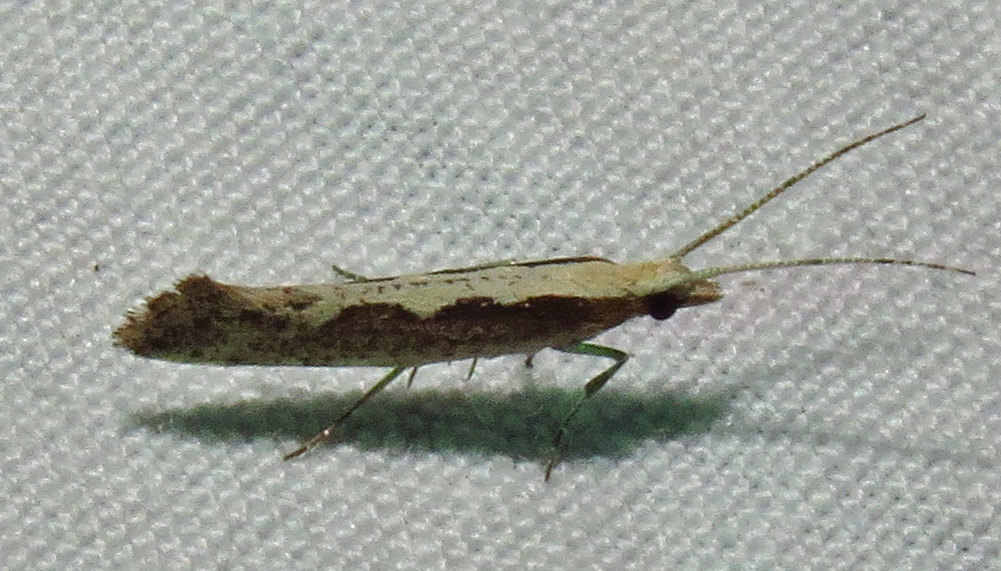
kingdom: Animalia
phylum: Arthropoda
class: Insecta
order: Lepidoptera
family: Plutellidae
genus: Plutella
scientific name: Plutella xylostella
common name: Diamond-back moth
